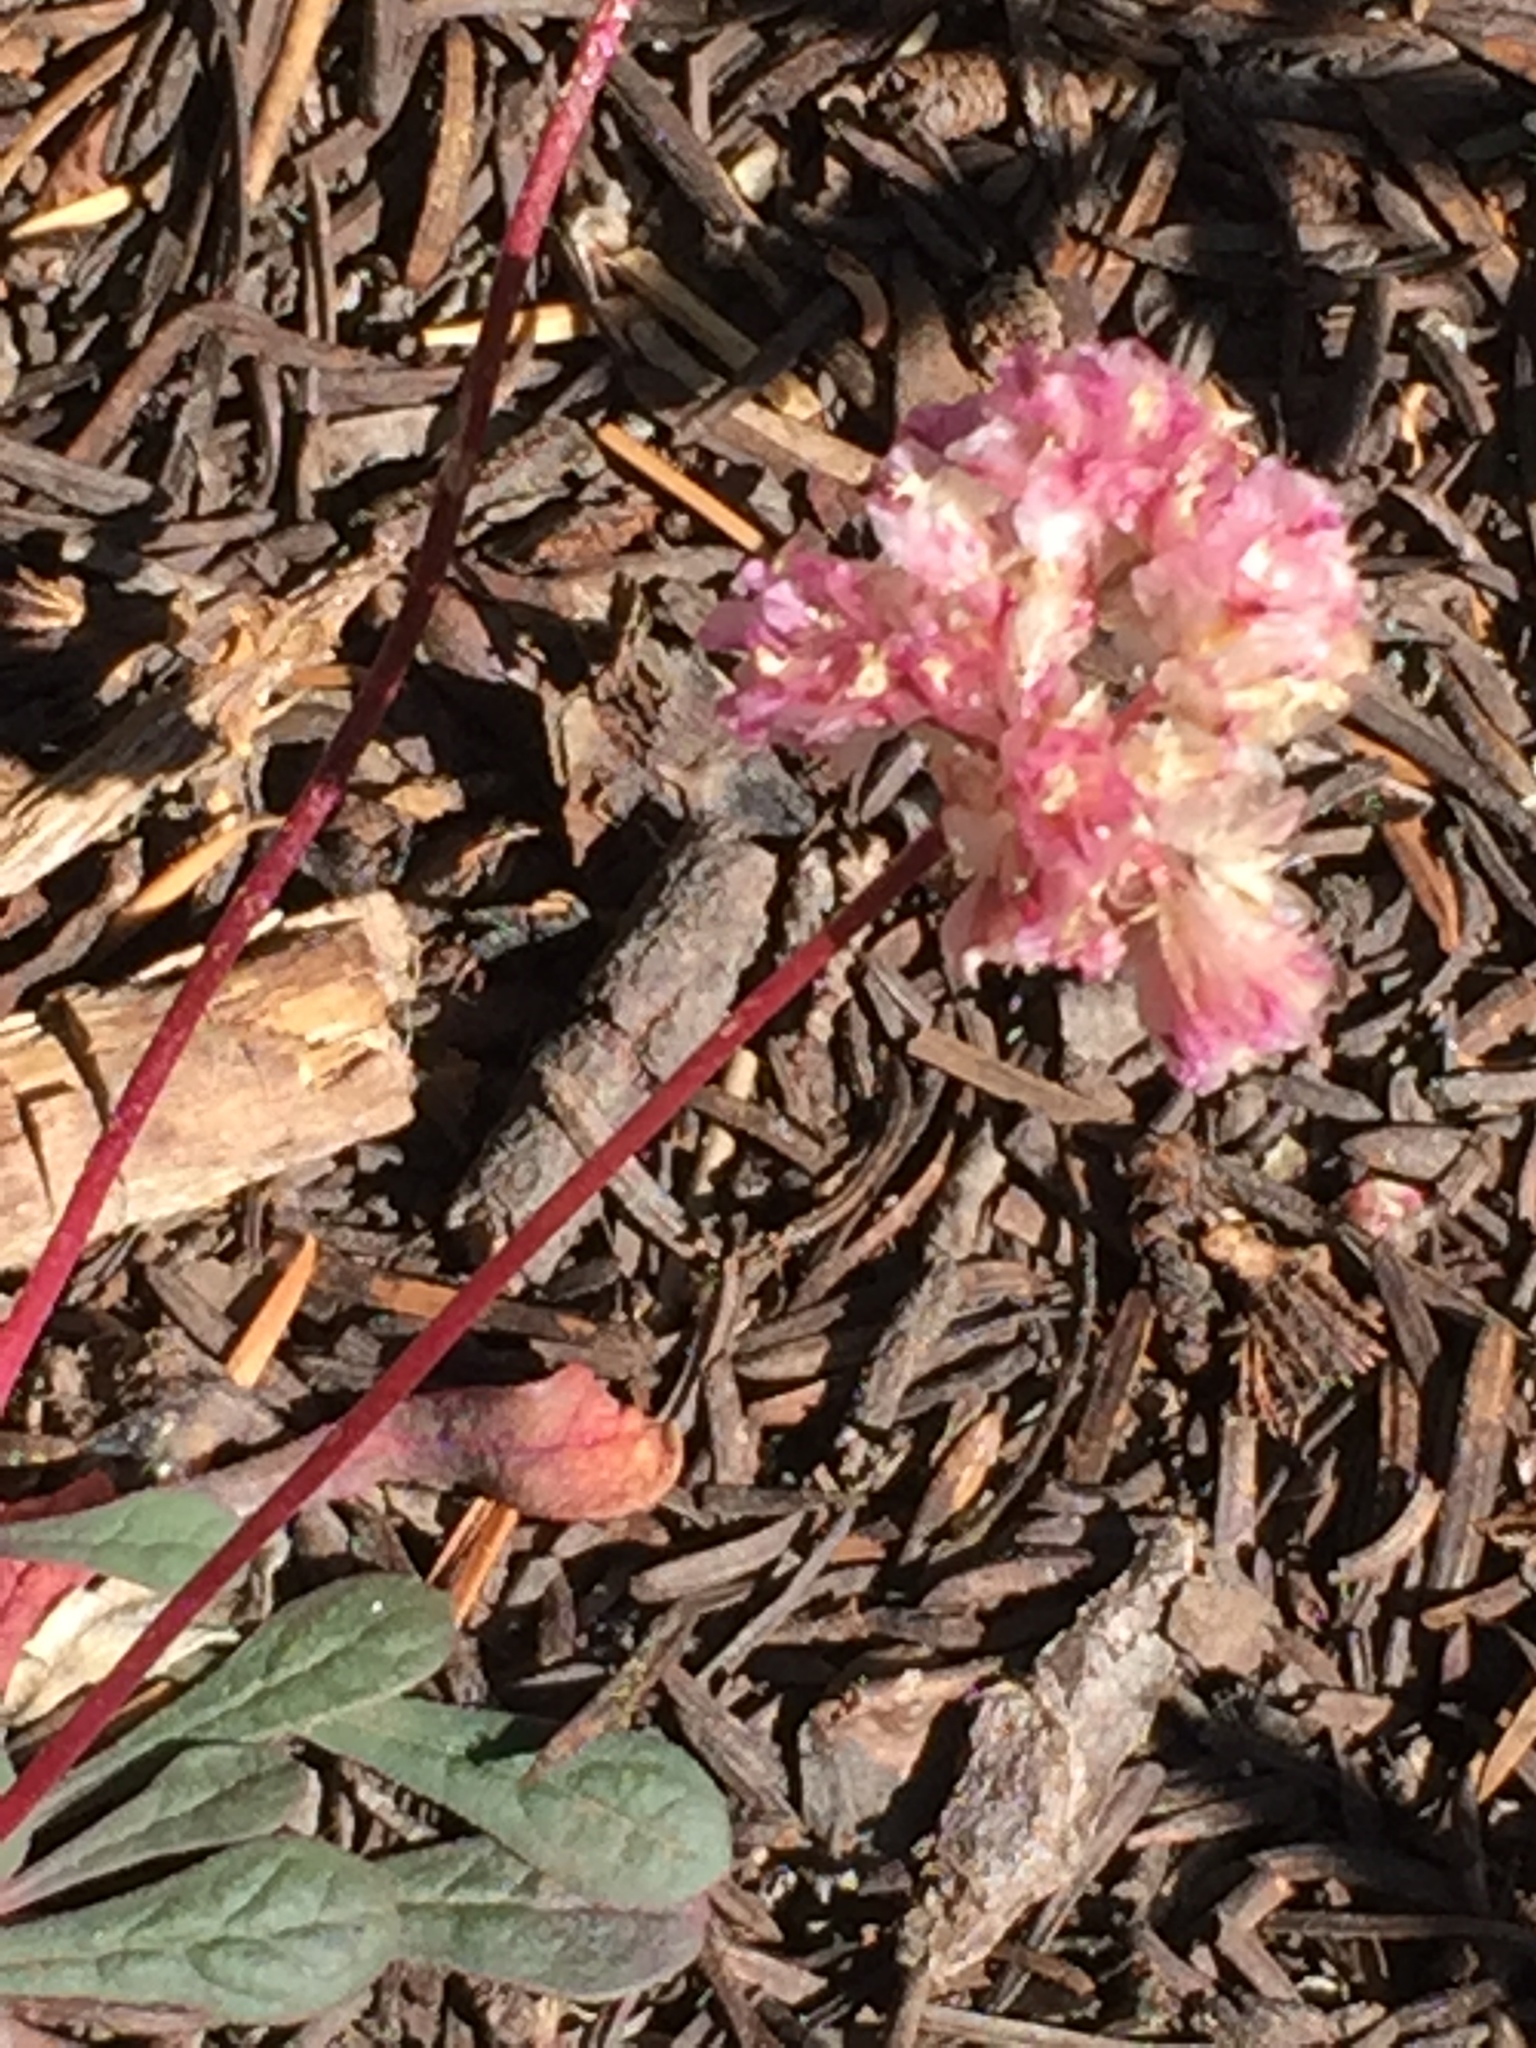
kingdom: Plantae
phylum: Tracheophyta
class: Magnoliopsida
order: Caryophyllales
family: Montiaceae
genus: Calyptridium
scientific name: Calyptridium monospermum
